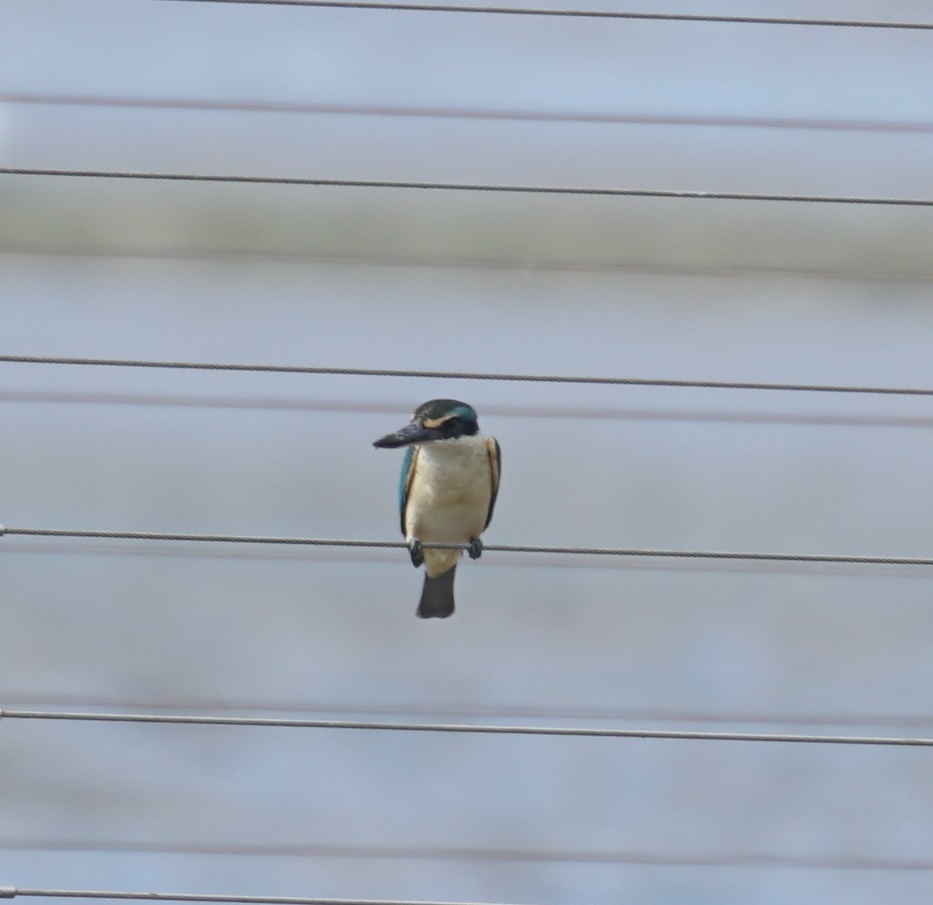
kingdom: Animalia
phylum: Chordata
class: Aves
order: Coraciiformes
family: Alcedinidae
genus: Todiramphus
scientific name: Todiramphus sanctus
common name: Sacred kingfisher
